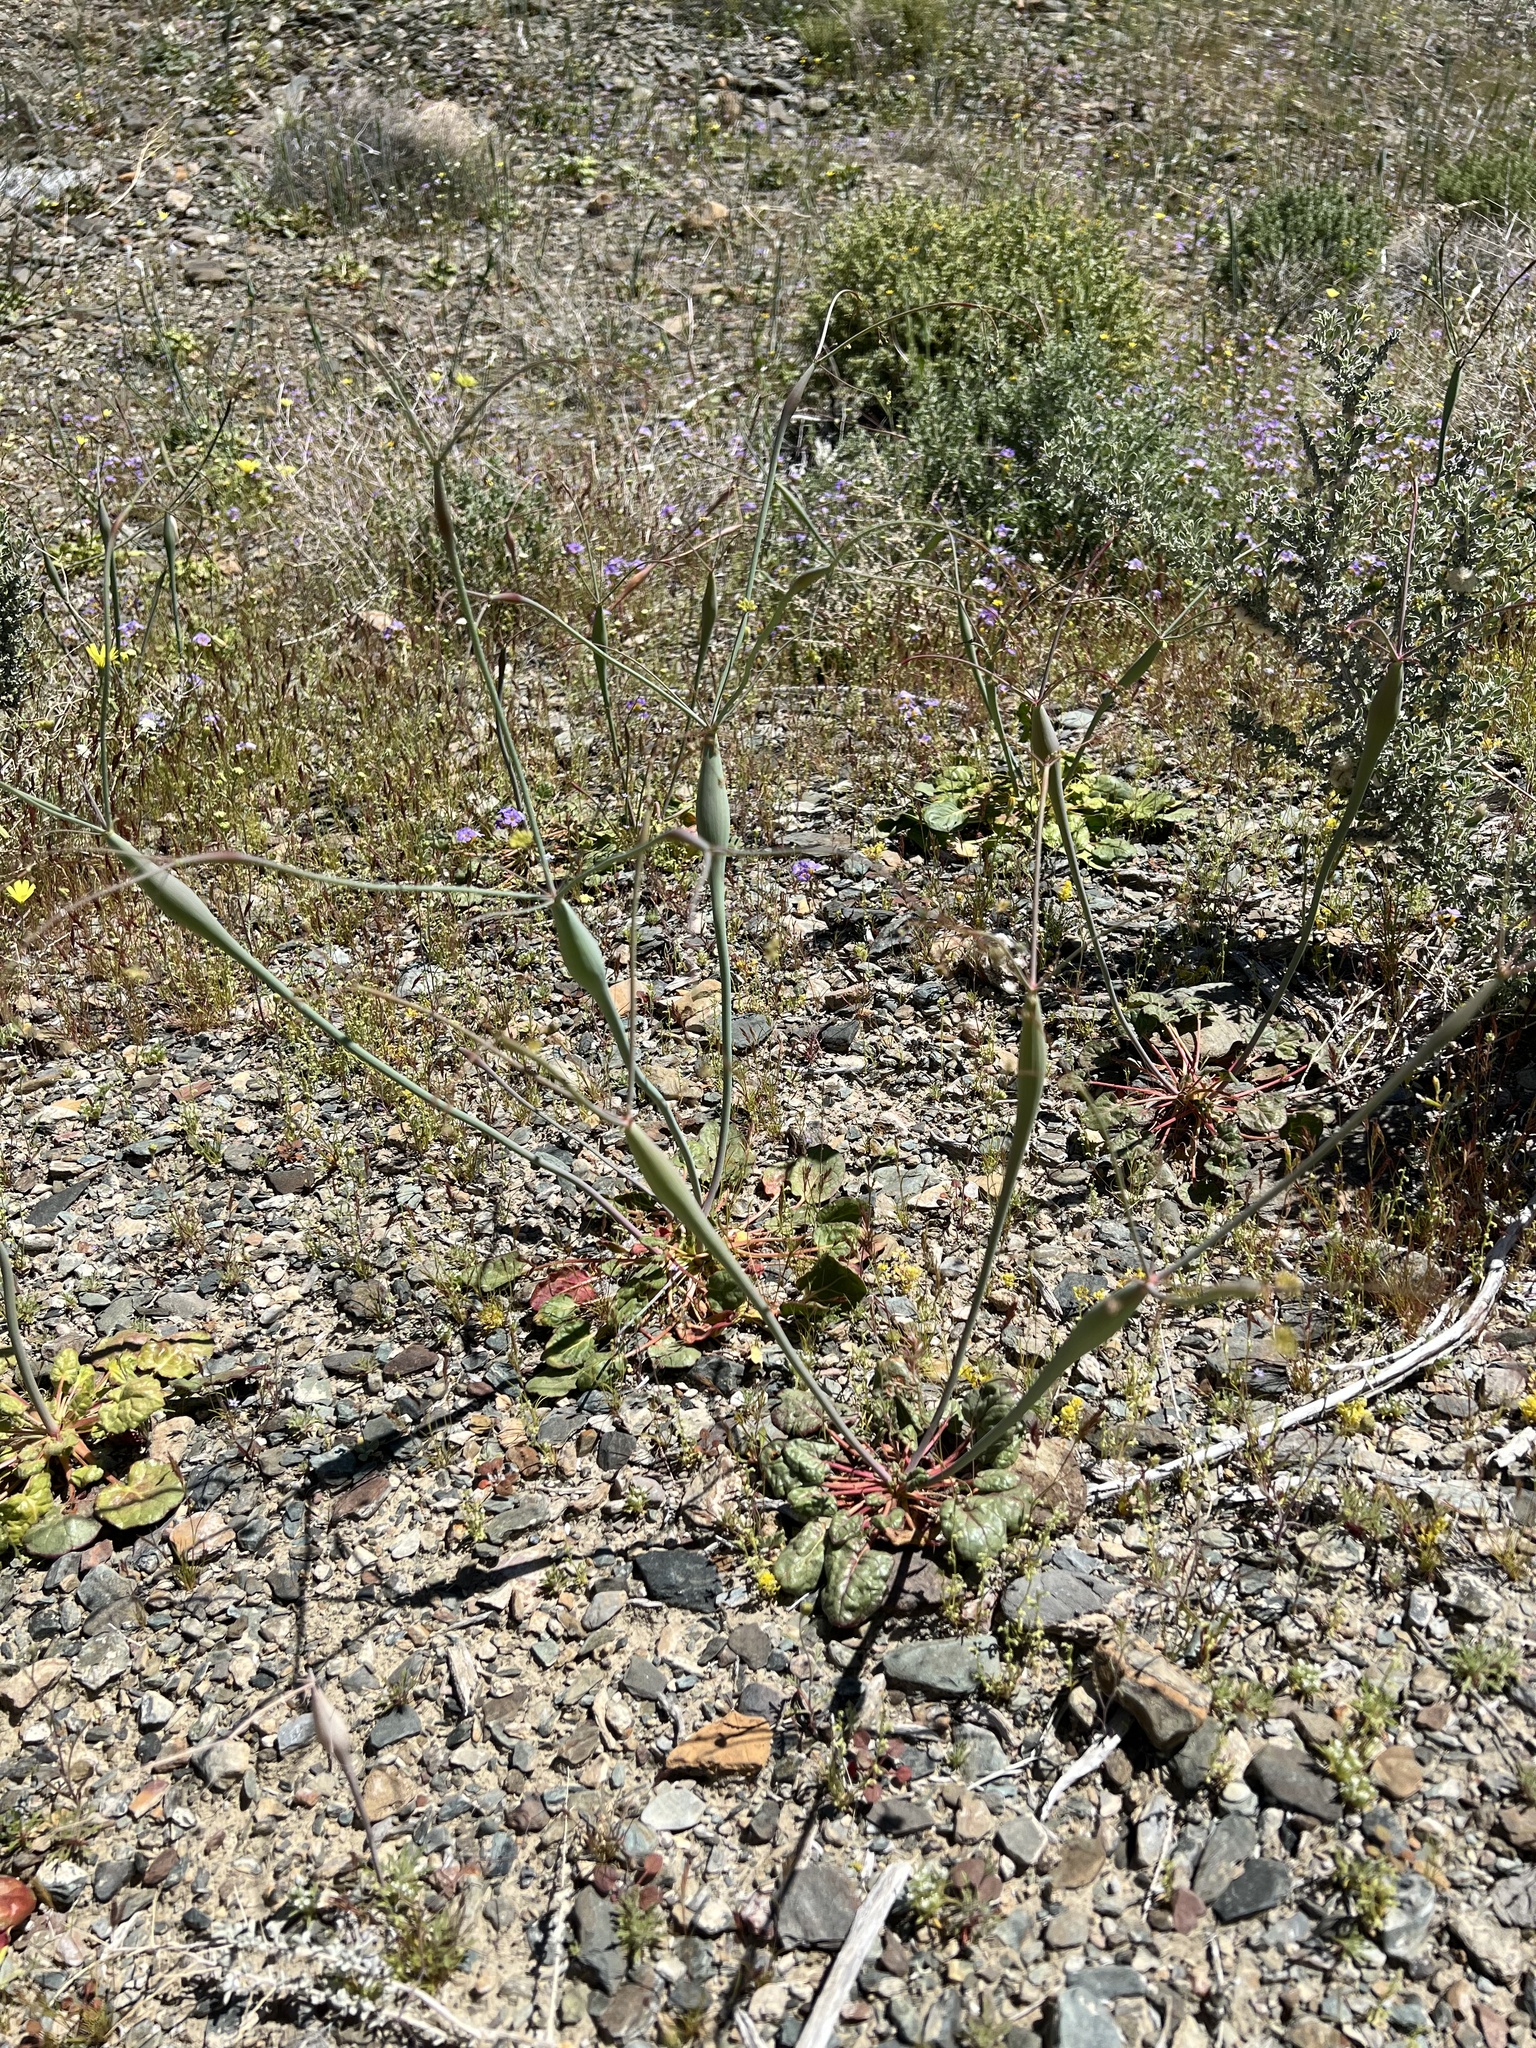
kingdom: Plantae
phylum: Tracheophyta
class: Magnoliopsida
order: Caryophyllales
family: Polygonaceae
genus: Eriogonum
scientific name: Eriogonum inflatum
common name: Desert trumpet
